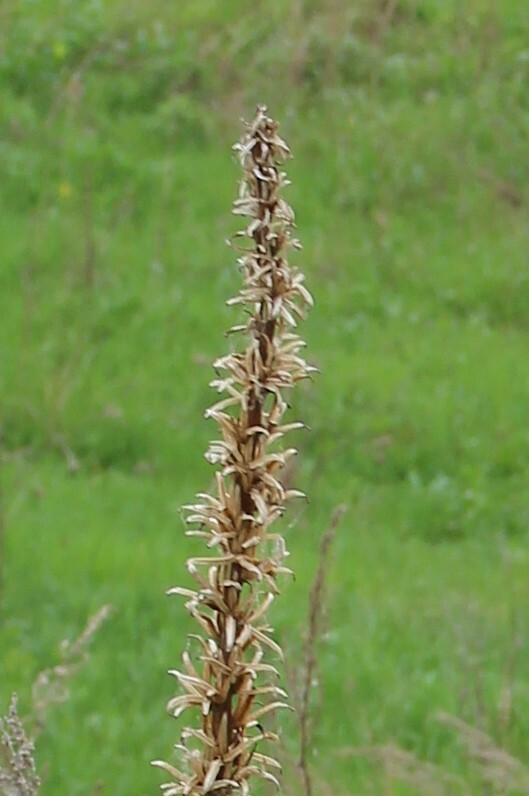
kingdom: Plantae
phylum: Tracheophyta
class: Magnoliopsida
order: Myrtales
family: Onagraceae
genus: Oenothera
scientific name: Oenothera
